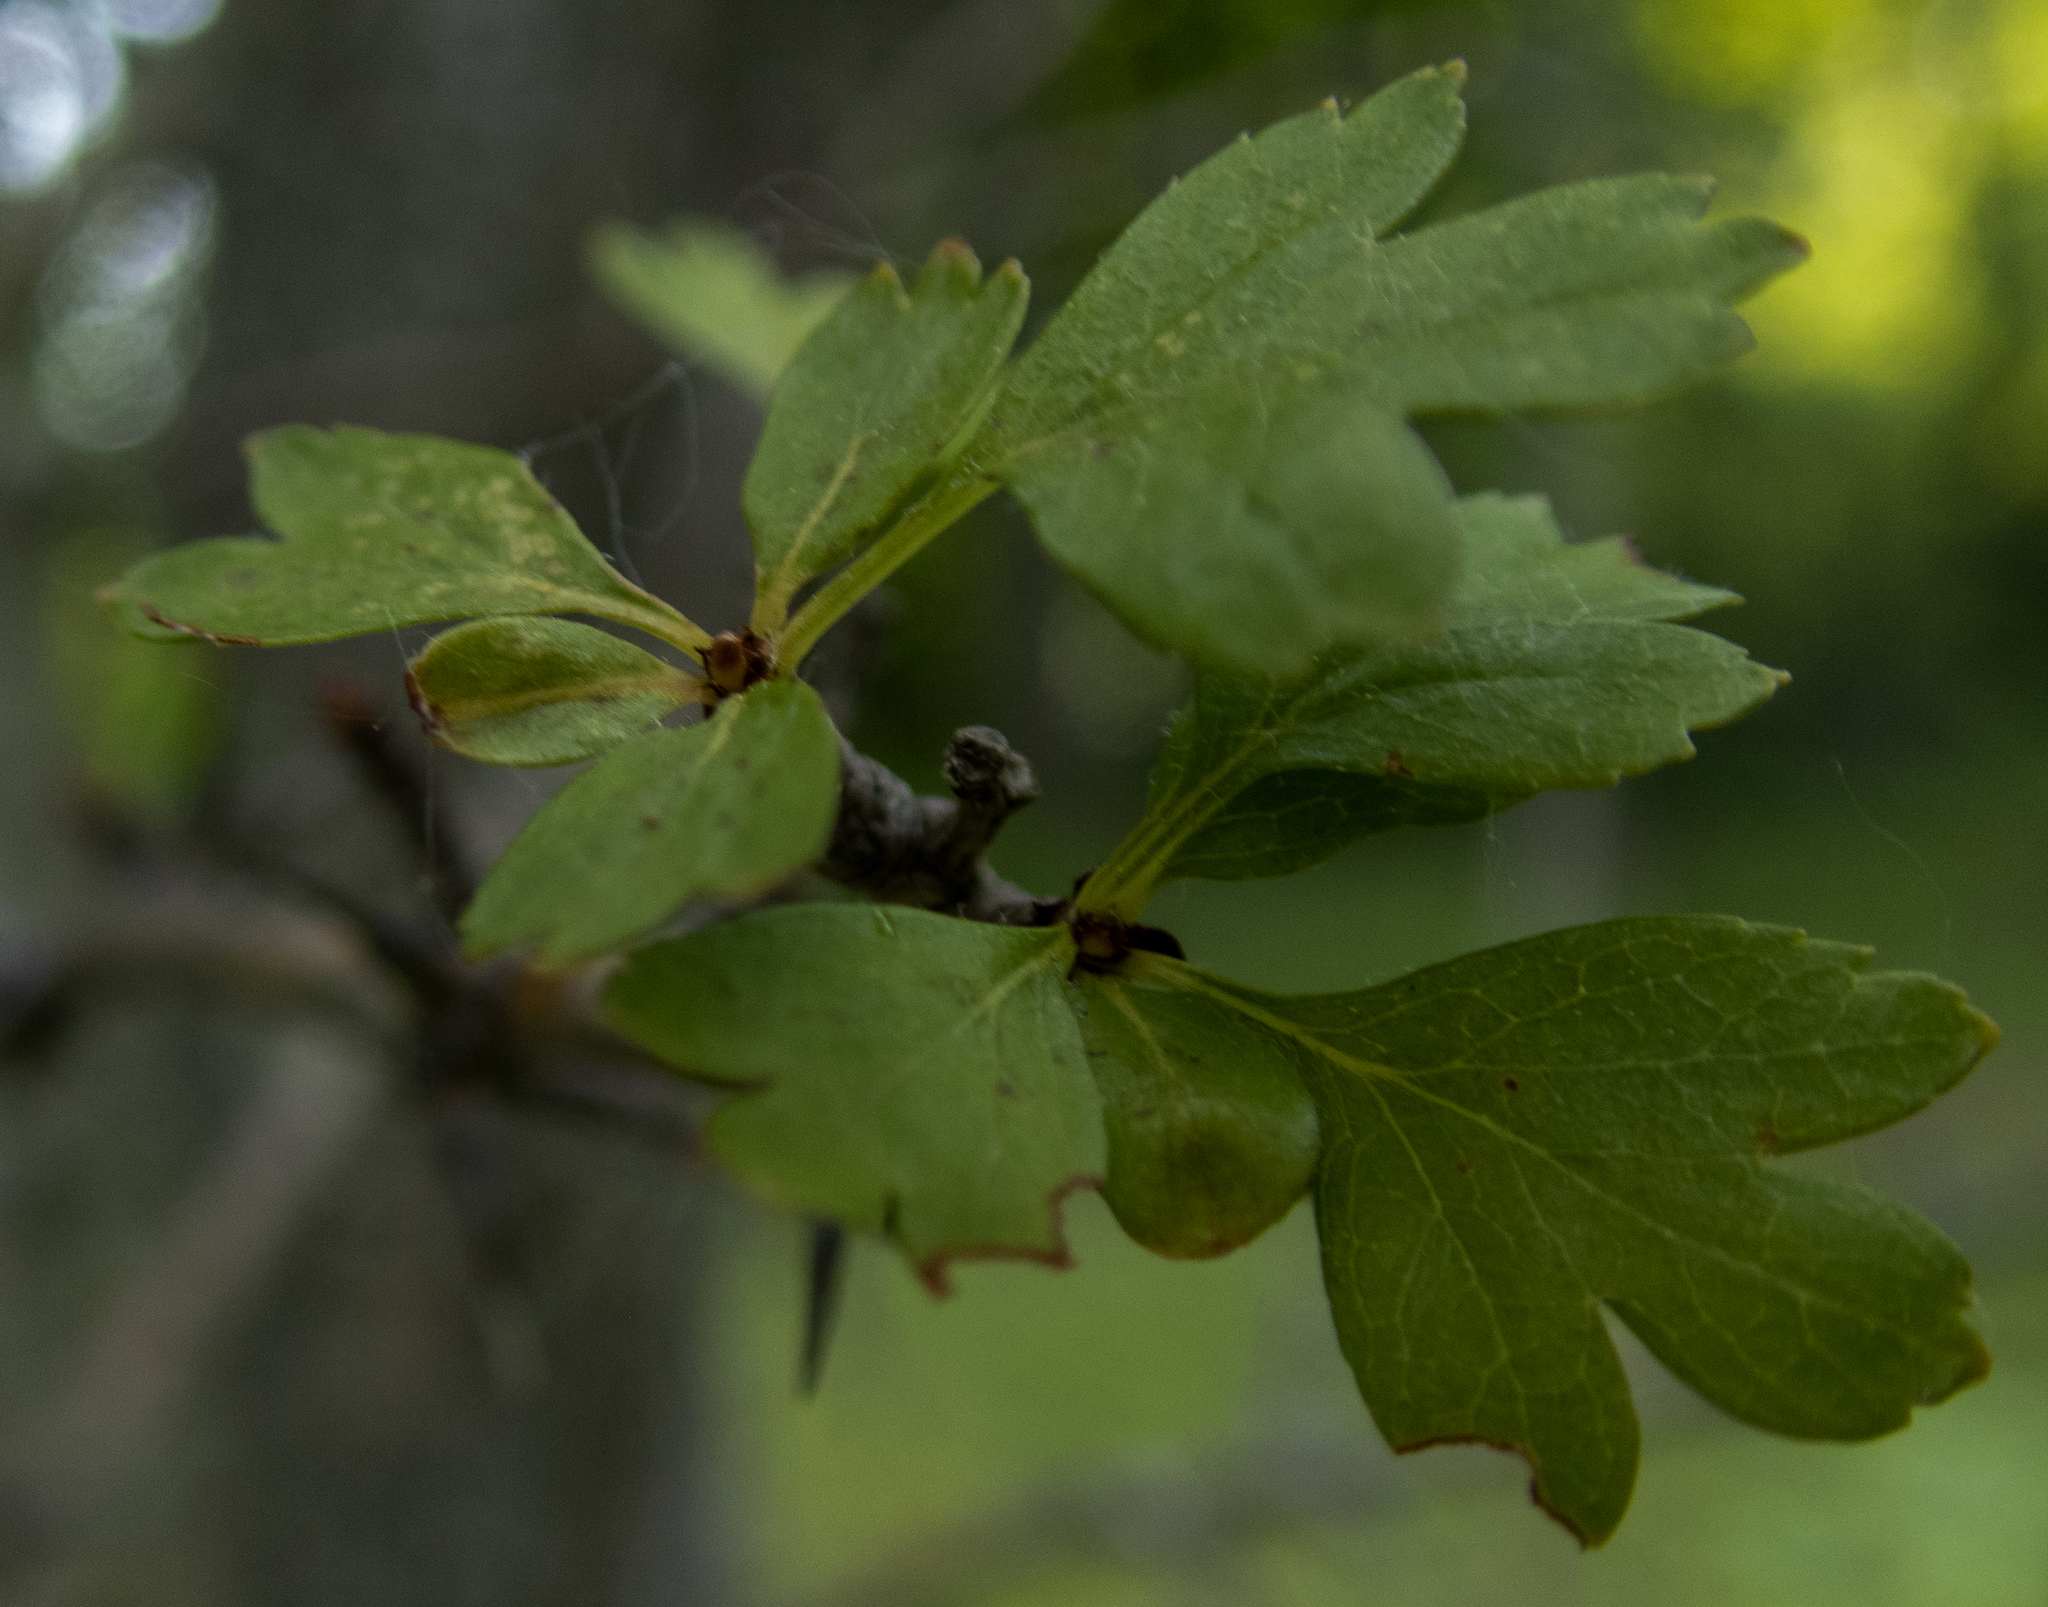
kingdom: Plantae
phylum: Tracheophyta
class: Magnoliopsida
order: Rosales
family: Rosaceae
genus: Crataegus
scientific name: Crataegus monogyna
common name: Hawthorn
